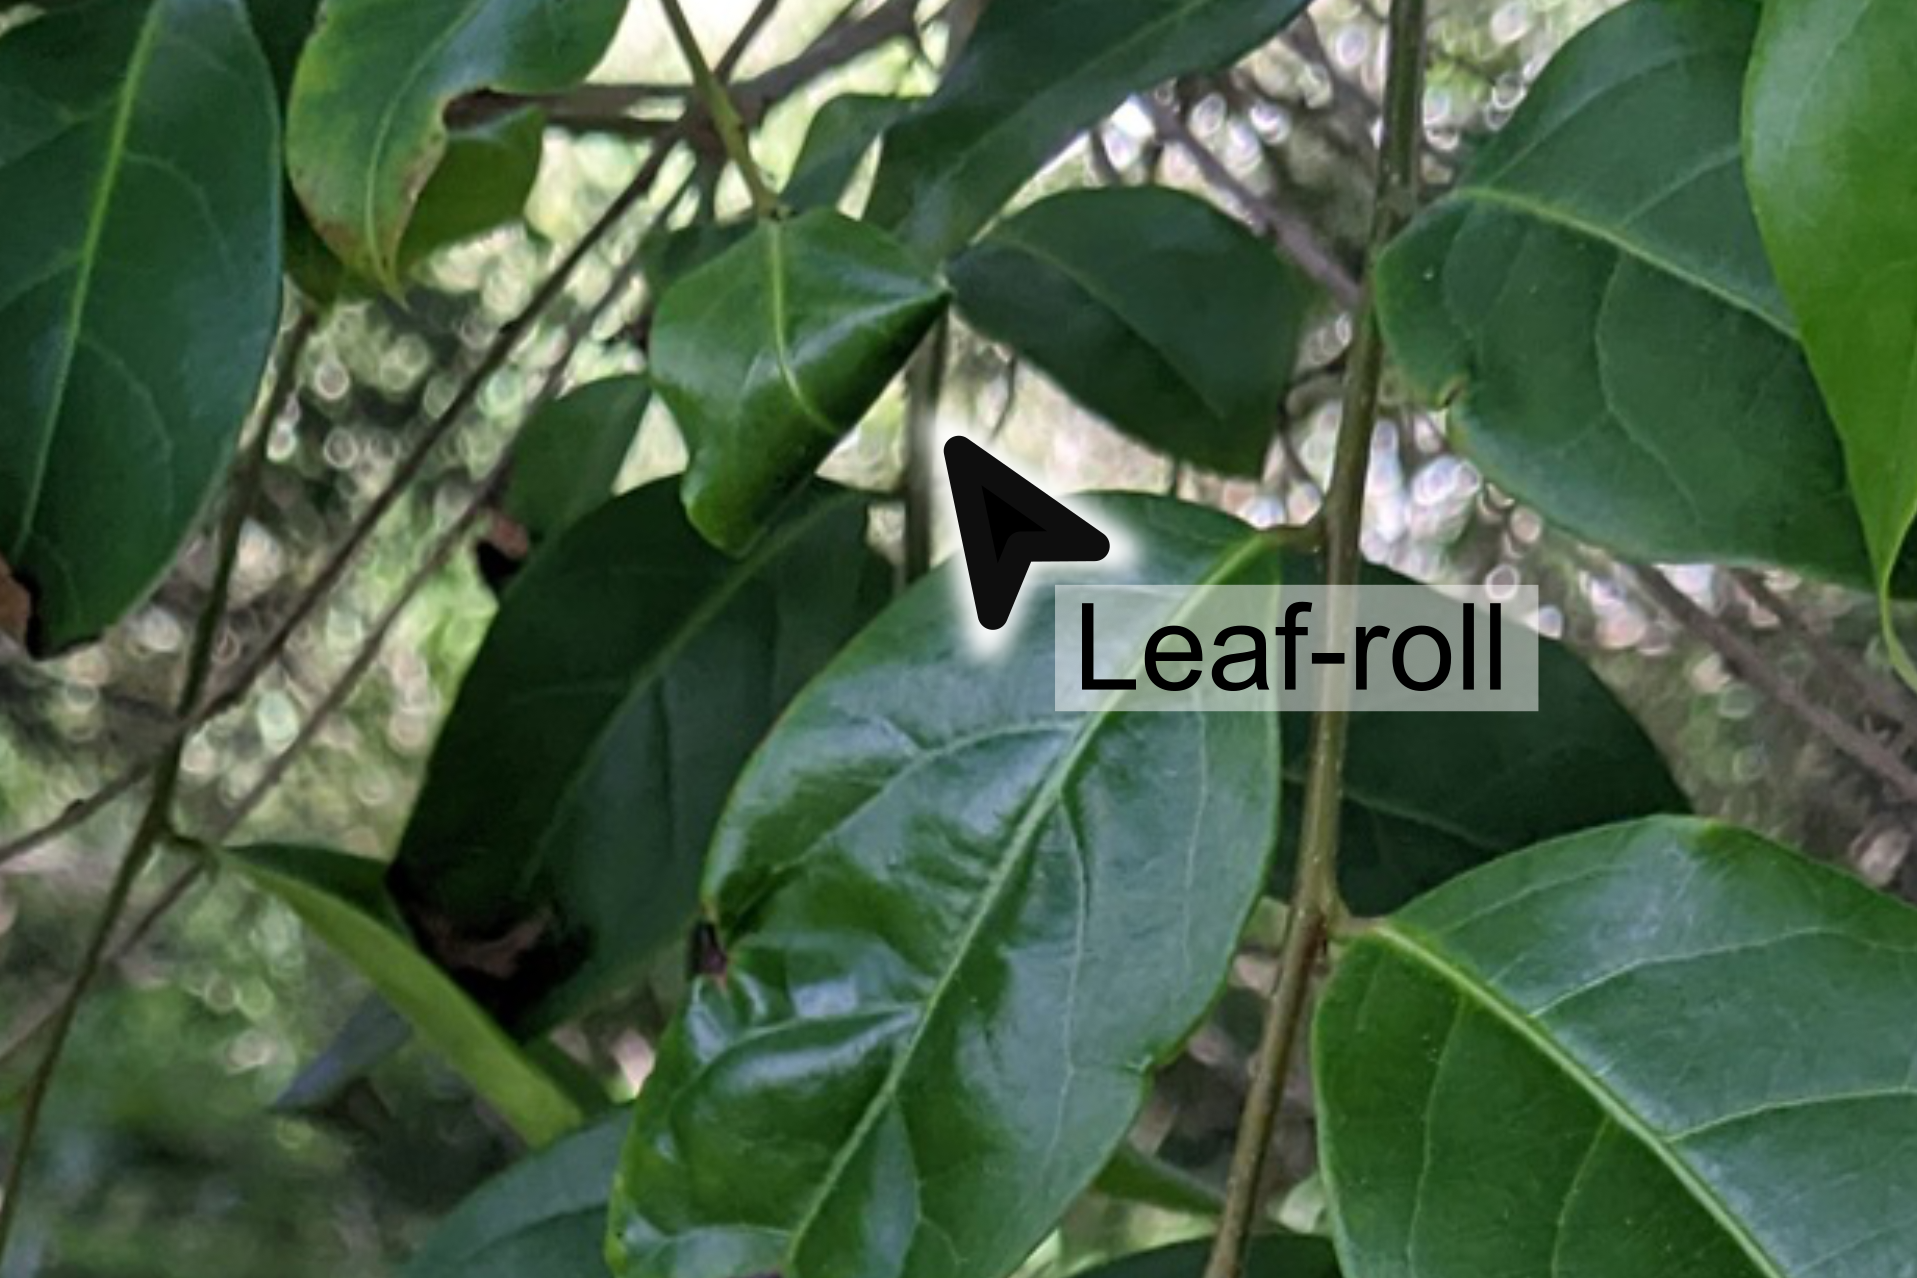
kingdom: Animalia
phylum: Arthropoda
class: Insecta
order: Lepidoptera
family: Gracillariidae
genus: Caloptilia
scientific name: Caloptilia xanthopharella
